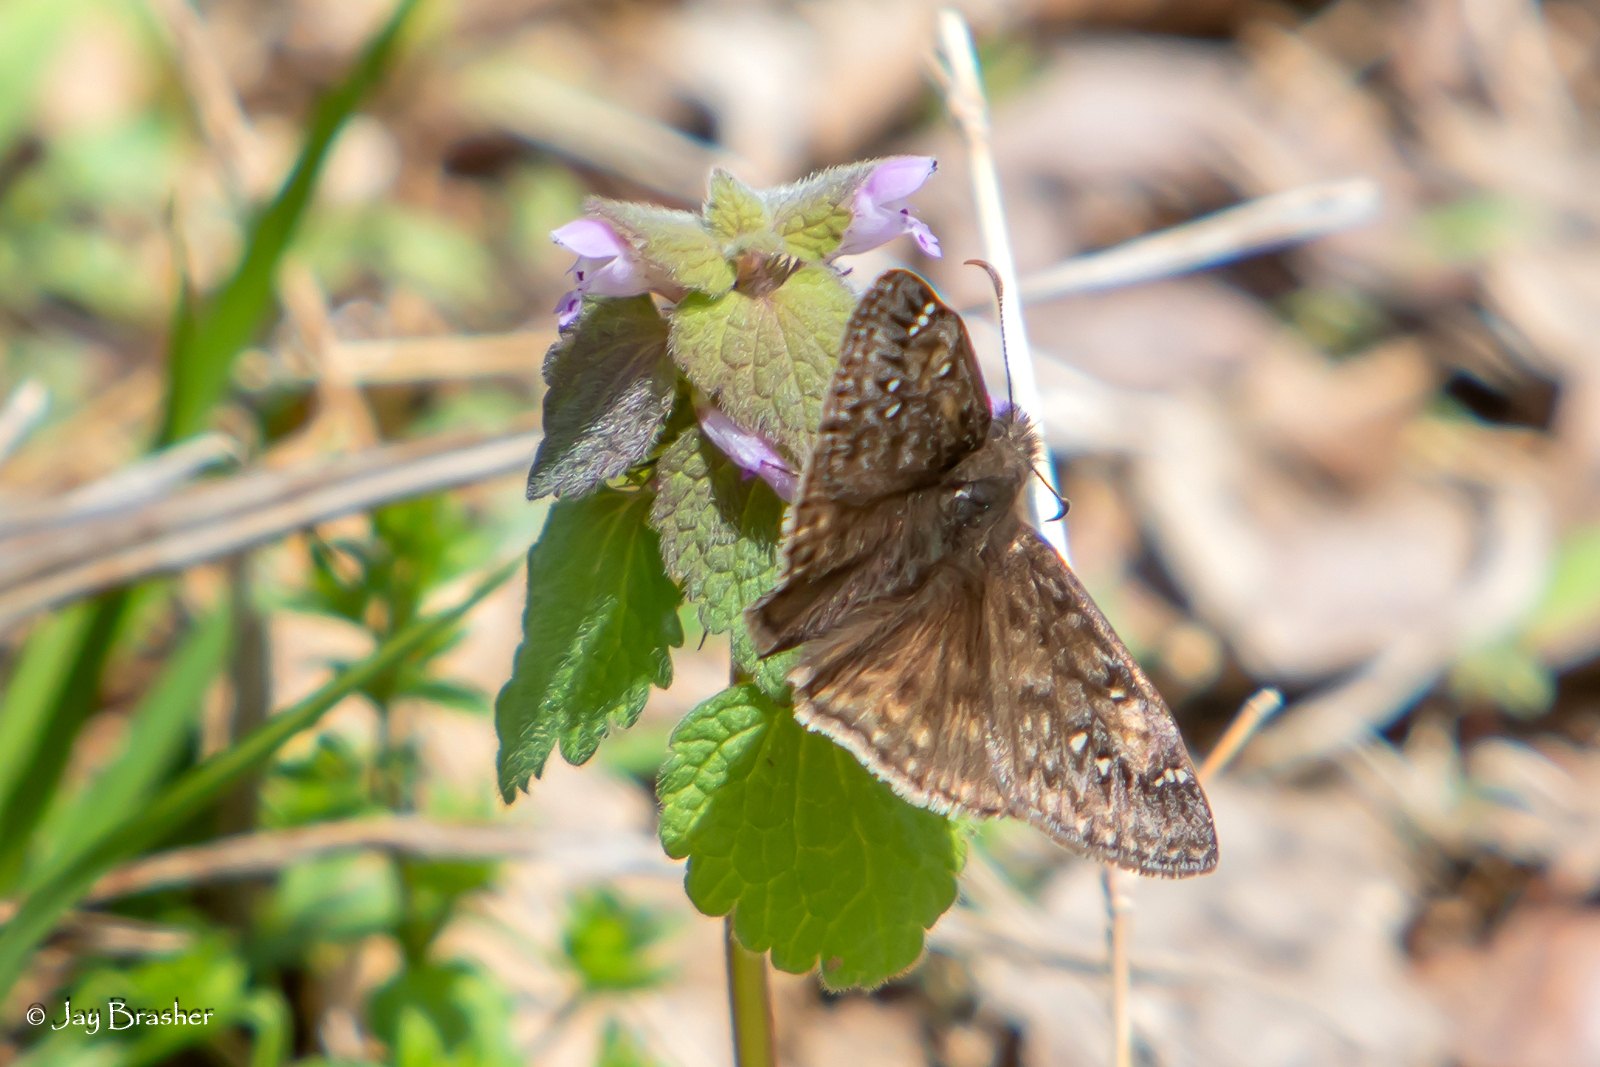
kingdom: Plantae
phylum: Tracheophyta
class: Magnoliopsida
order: Lamiales
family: Lamiaceae
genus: Lamium
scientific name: Lamium purpureum
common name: Red dead-nettle
